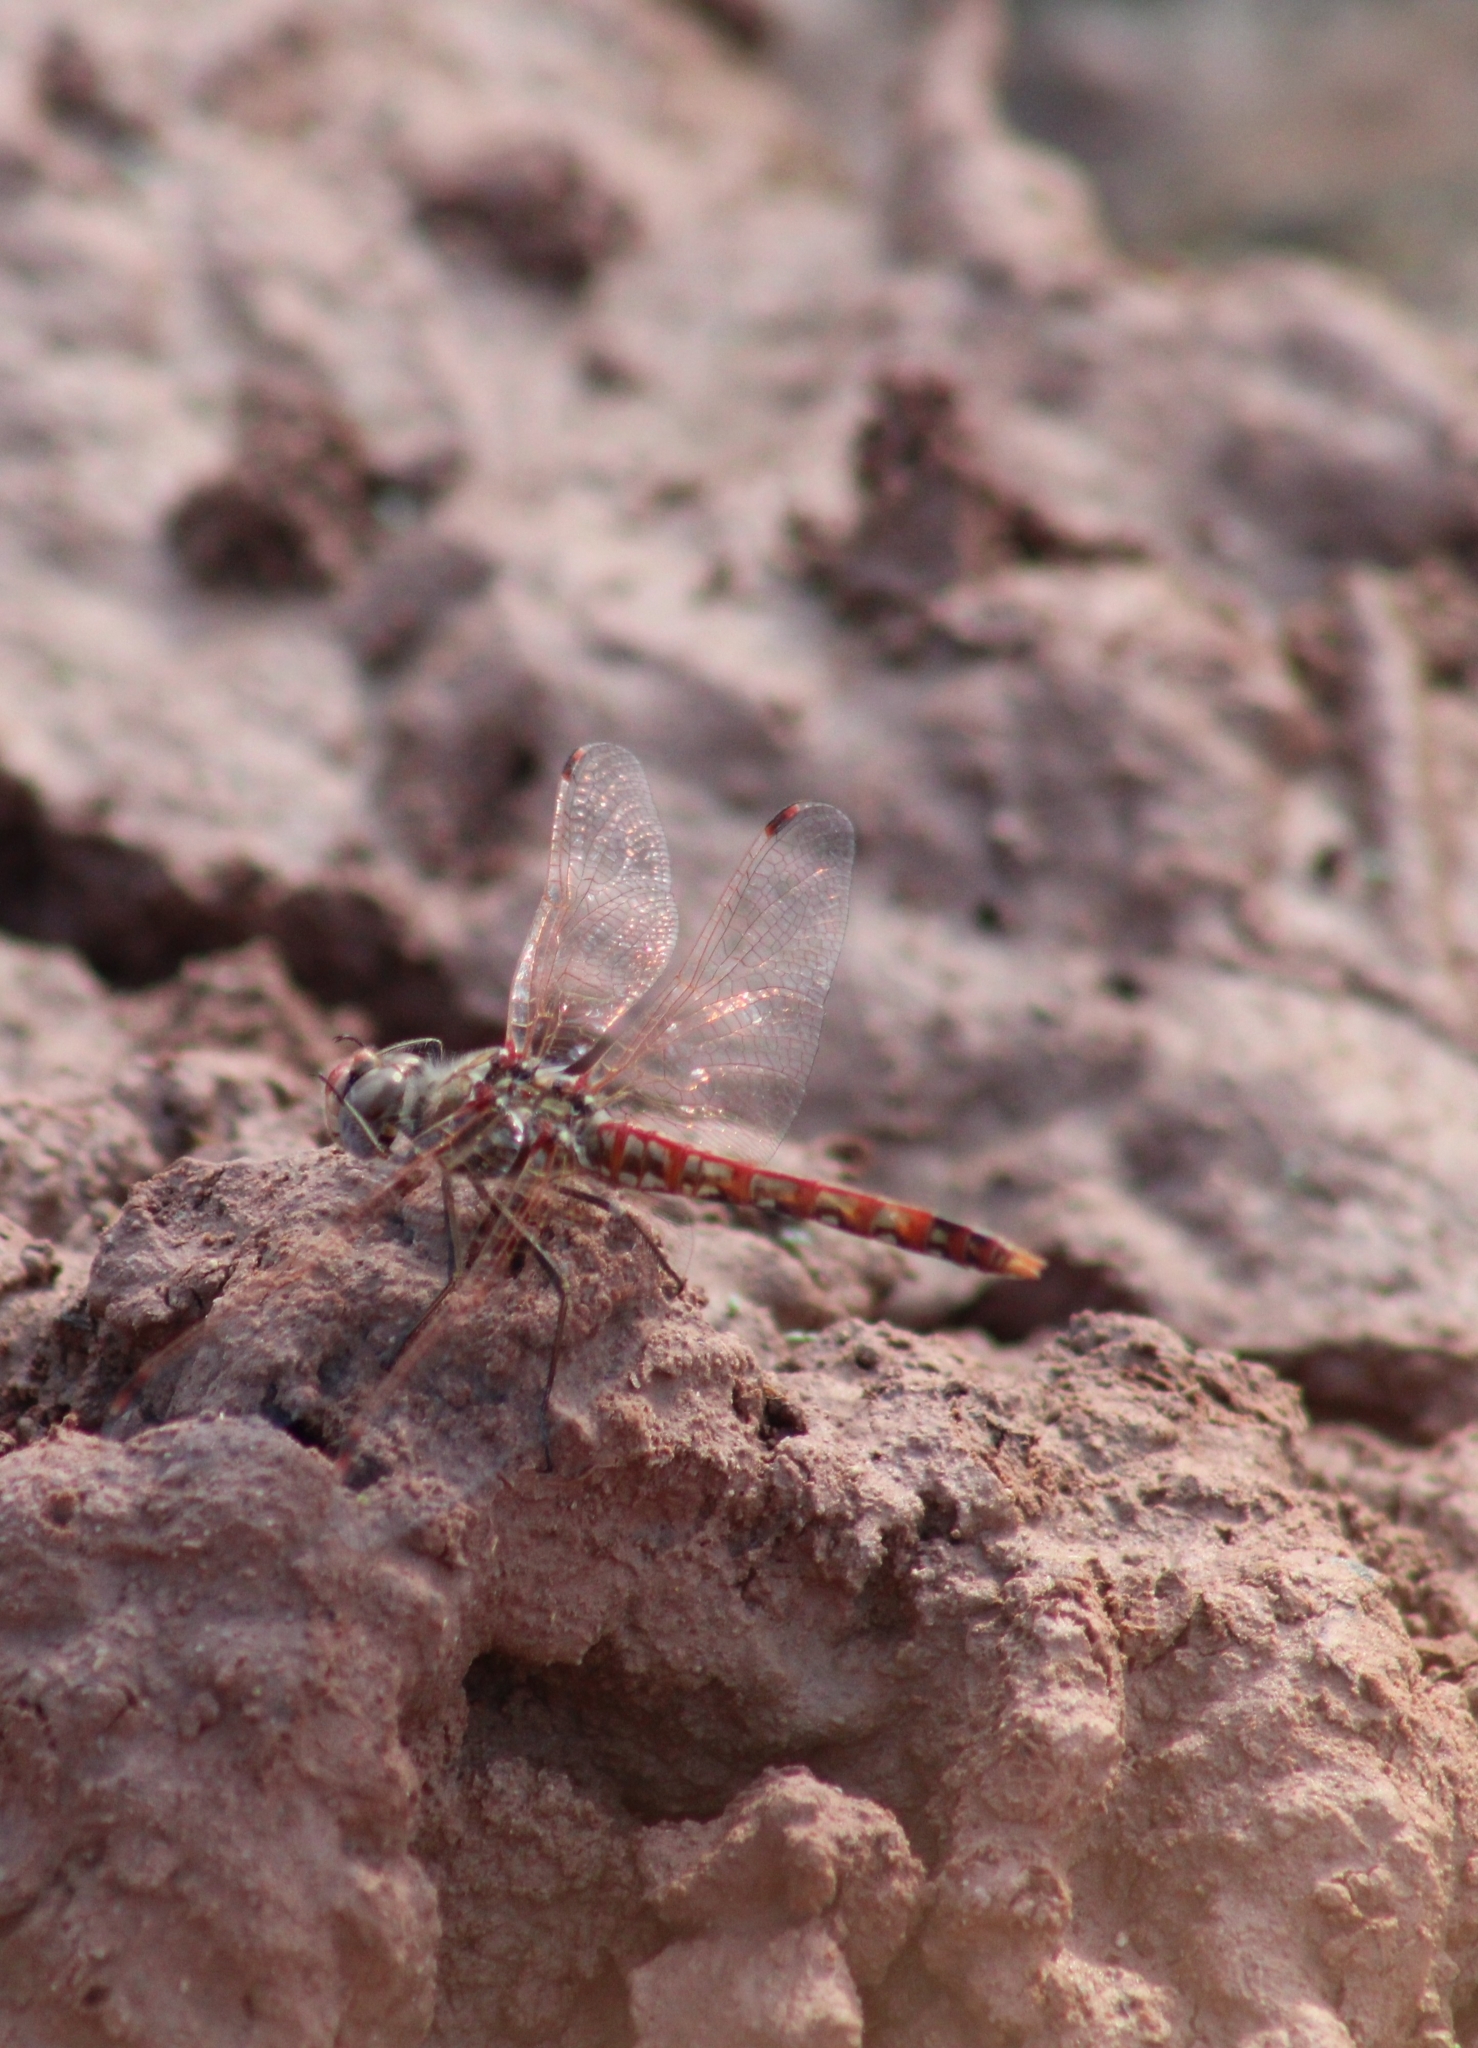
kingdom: Animalia
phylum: Arthropoda
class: Insecta
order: Odonata
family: Libellulidae
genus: Sympetrum
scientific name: Sympetrum corruptum
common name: Variegated meadowhawk
